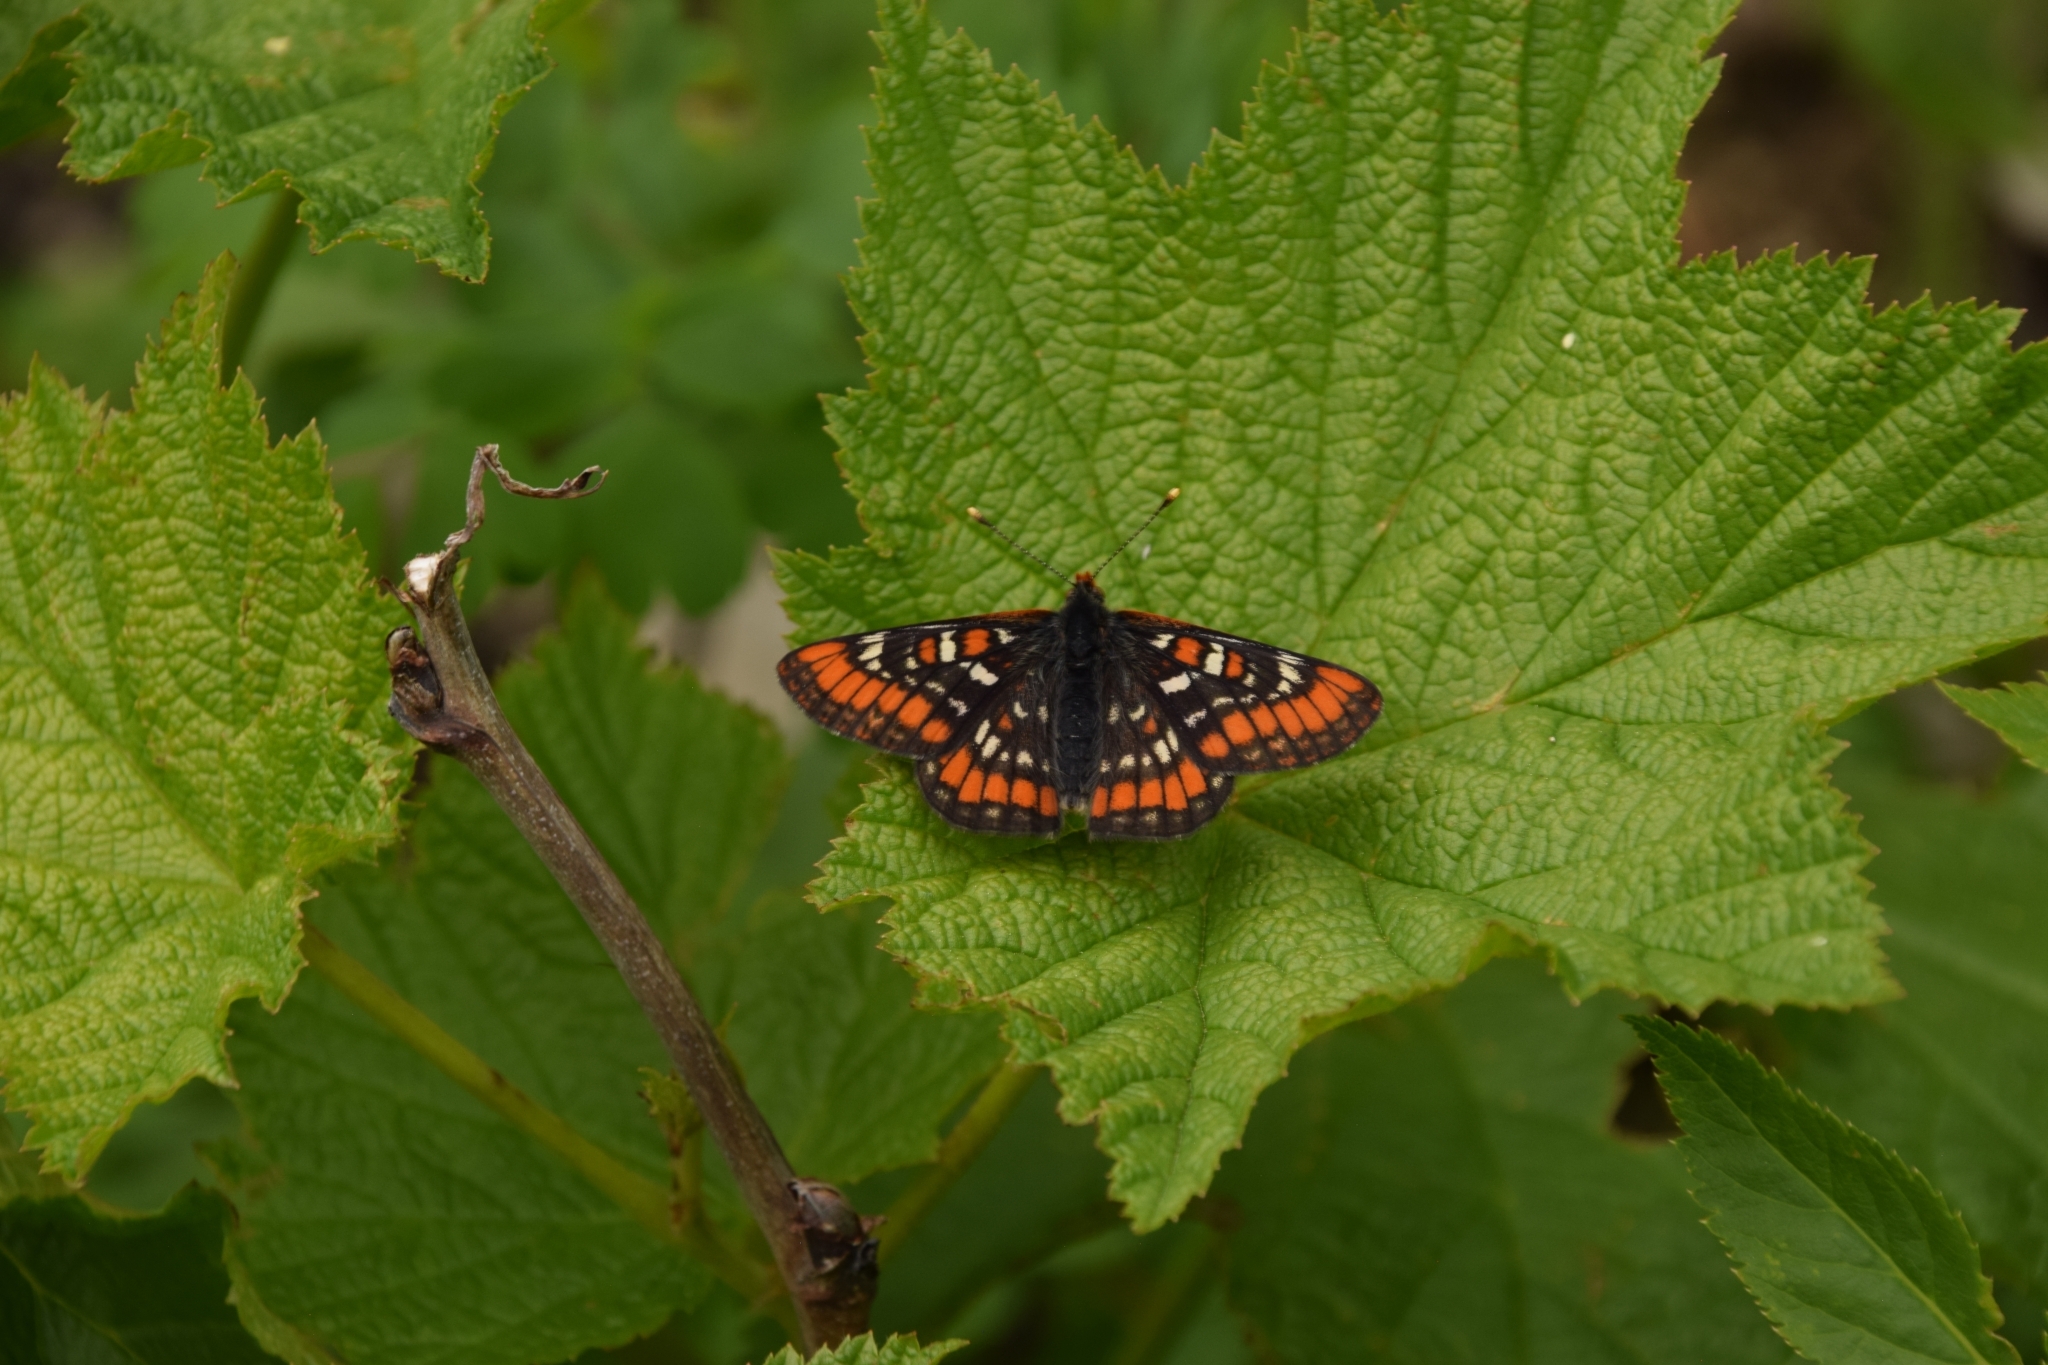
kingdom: Animalia
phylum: Arthropoda
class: Insecta
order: Lepidoptera
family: Nymphalidae
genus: Hypodryas
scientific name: Hypodryas gillettii
